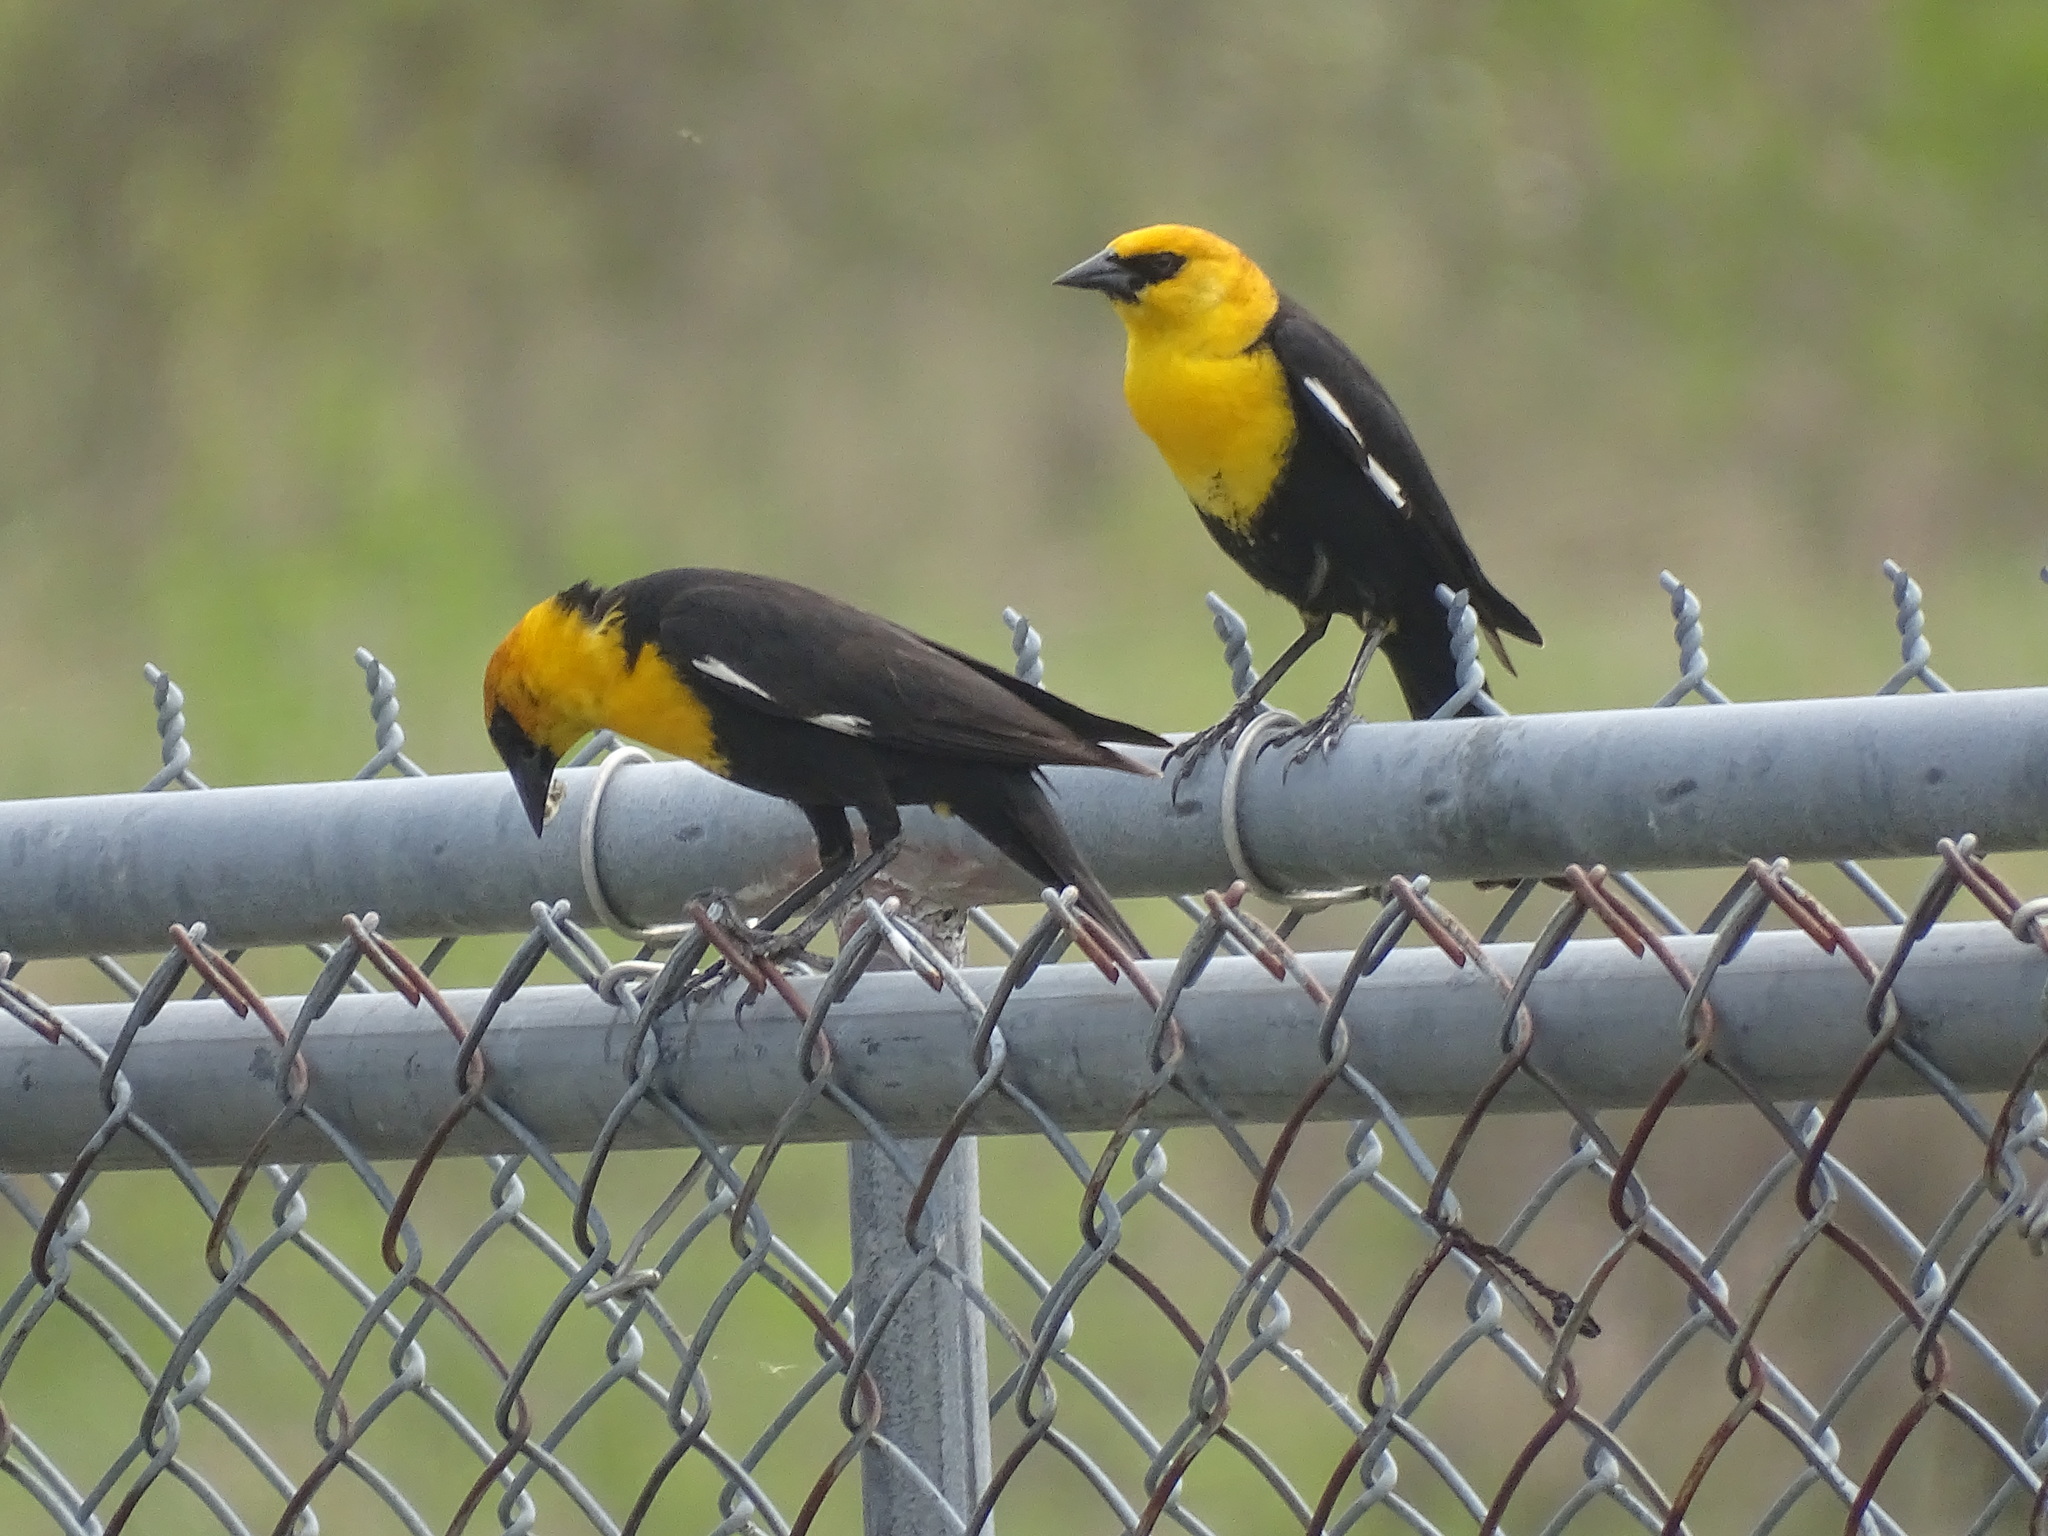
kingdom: Animalia
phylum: Chordata
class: Aves
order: Passeriformes
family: Icteridae
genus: Xanthocephalus
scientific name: Xanthocephalus xanthocephalus
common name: Yellow-headed blackbird
